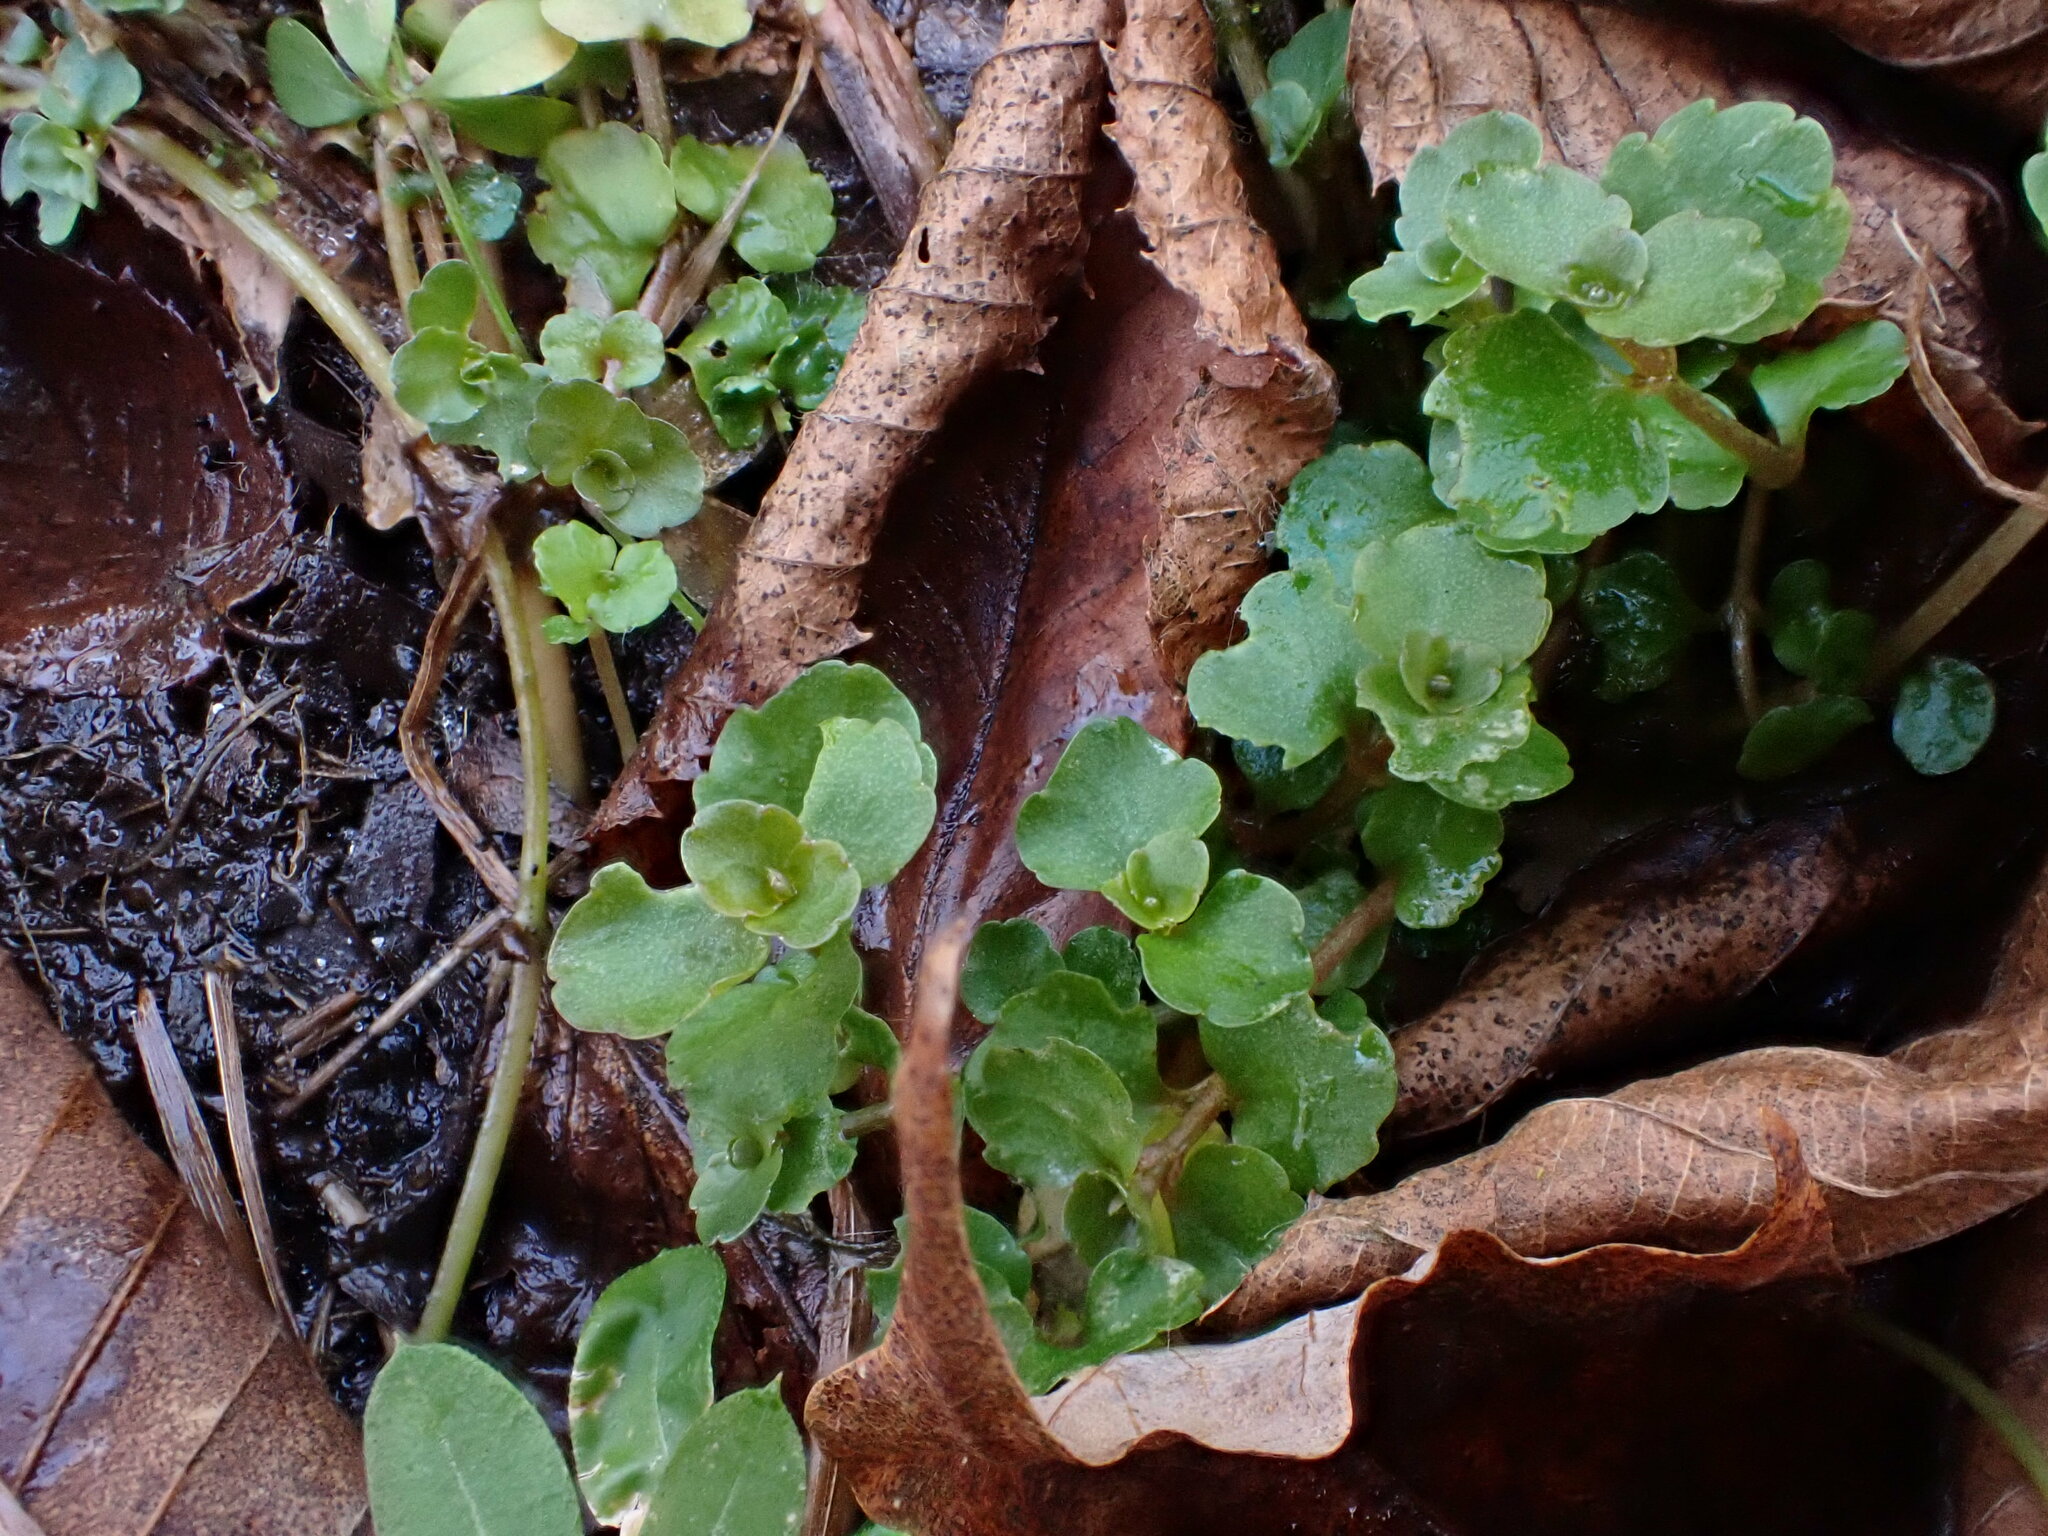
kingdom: Plantae
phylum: Tracheophyta
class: Magnoliopsida
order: Saxifragales
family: Saxifragaceae
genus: Chrysosplenium
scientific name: Chrysosplenium americanum
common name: American golden-saxifrage
